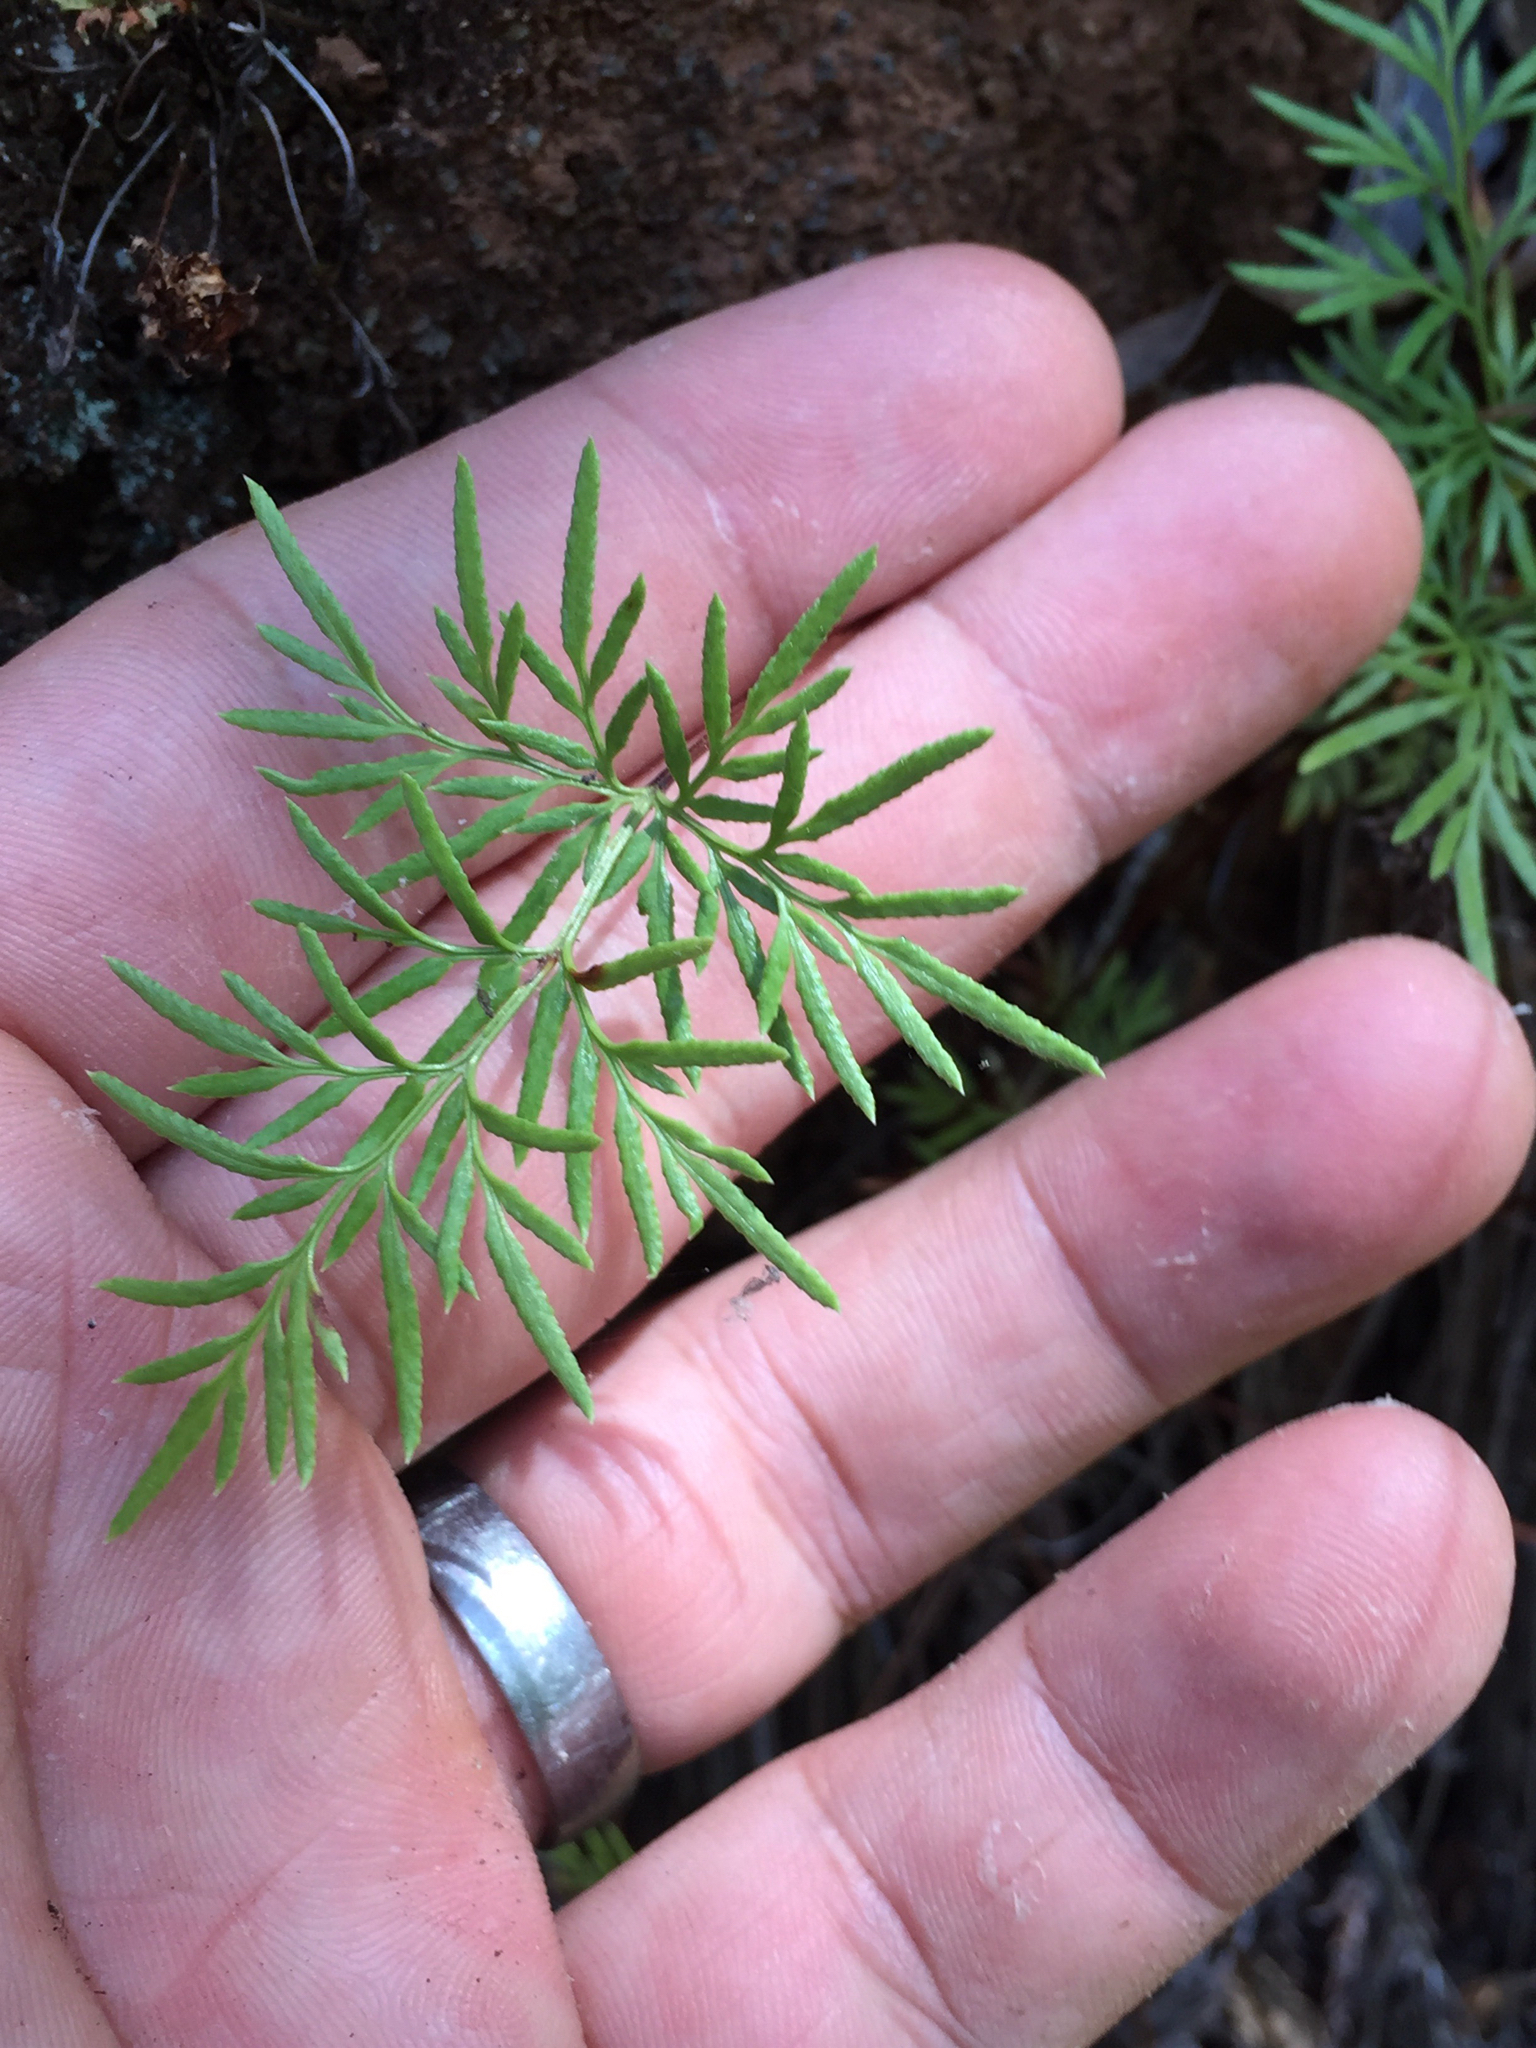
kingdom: Plantae
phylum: Tracheophyta
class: Polypodiopsida
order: Polypodiales
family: Pteridaceae
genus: Aspidotis
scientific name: Aspidotis densa
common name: Indian's dream
